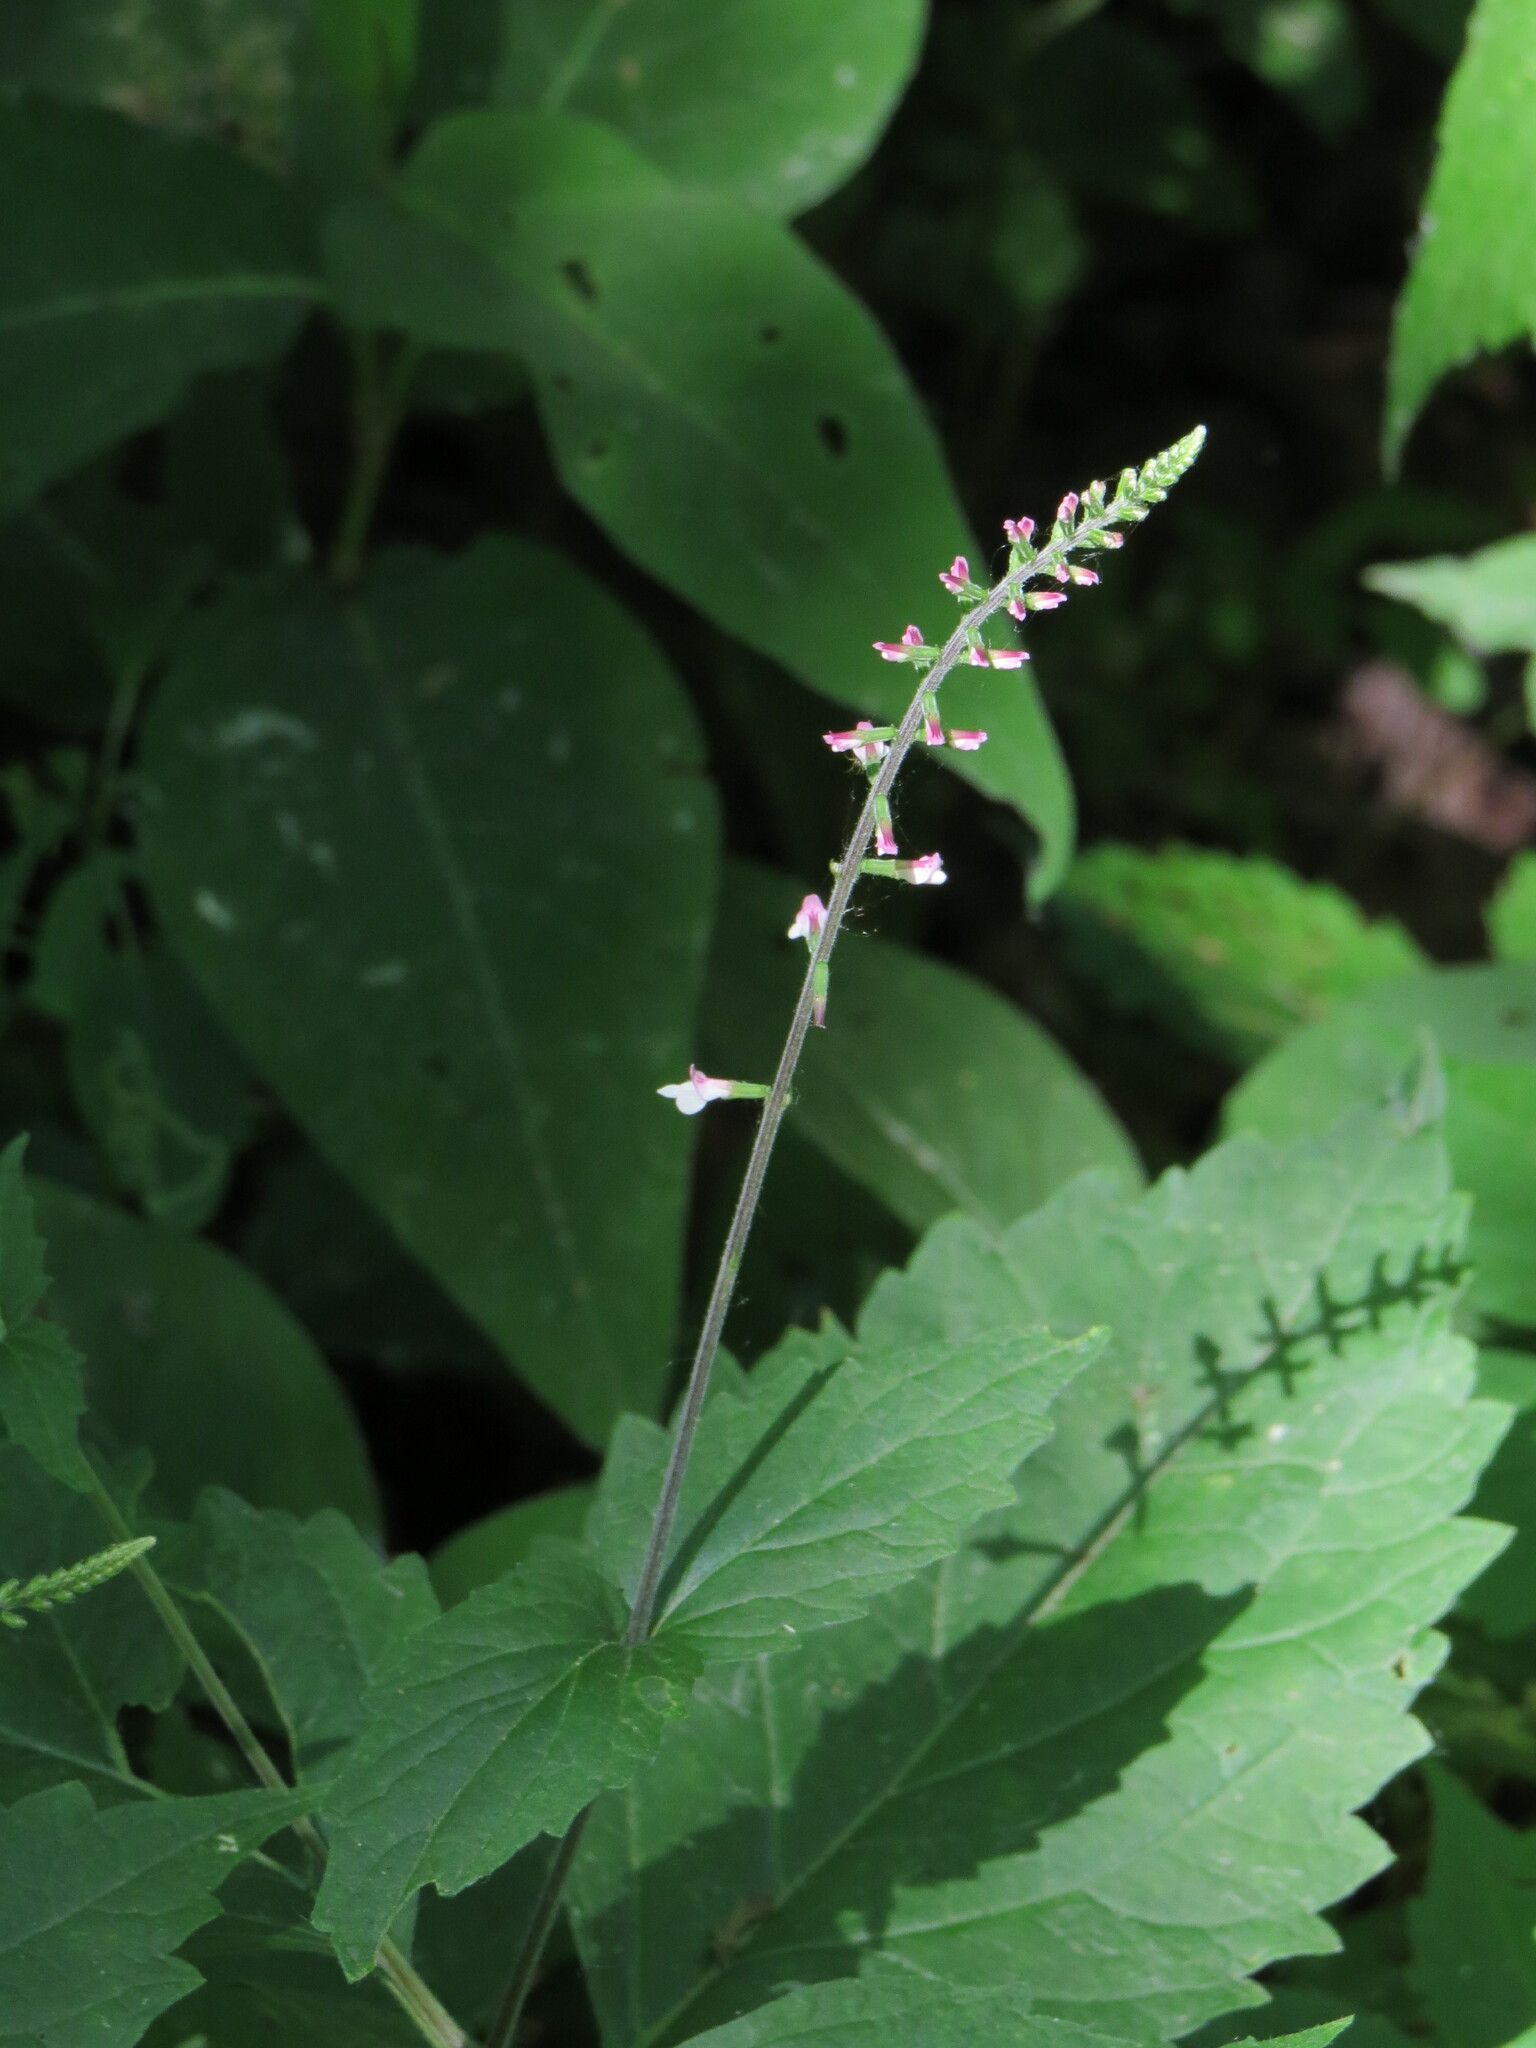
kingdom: Plantae
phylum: Tracheophyta
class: Magnoliopsida
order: Lamiales
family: Phrymaceae
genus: Phryma
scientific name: Phryma leptostachya
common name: American lopseed
